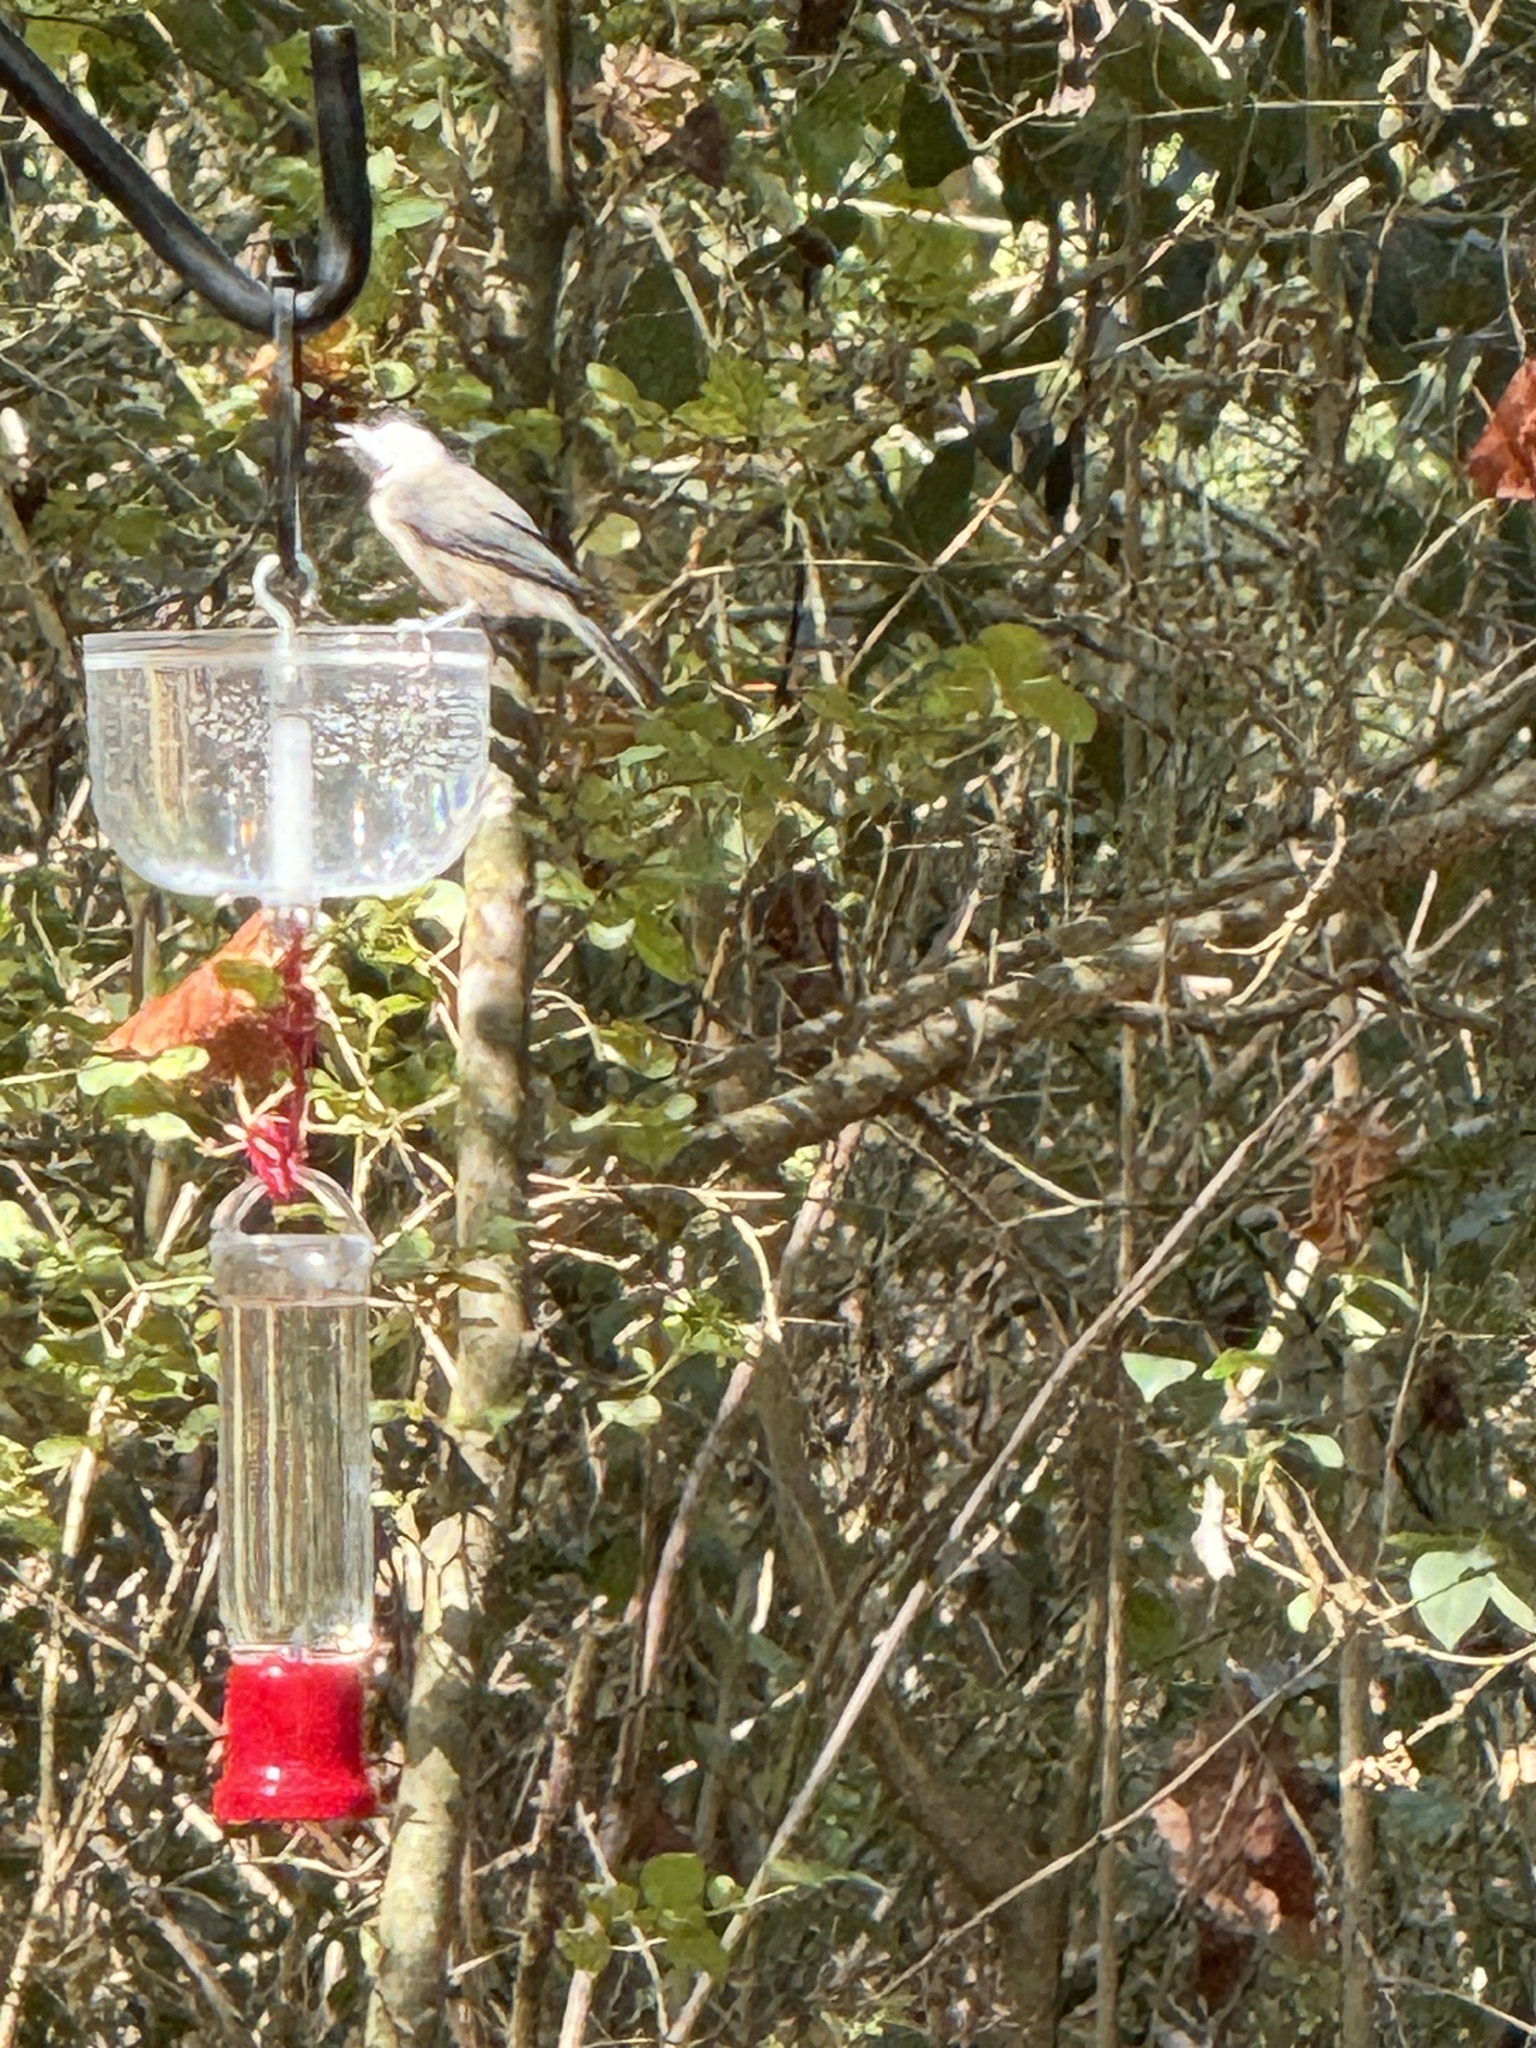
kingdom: Animalia
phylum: Chordata
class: Aves
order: Passeriformes
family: Paridae
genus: Poecile
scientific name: Poecile carolinensis
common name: Carolina chickadee
